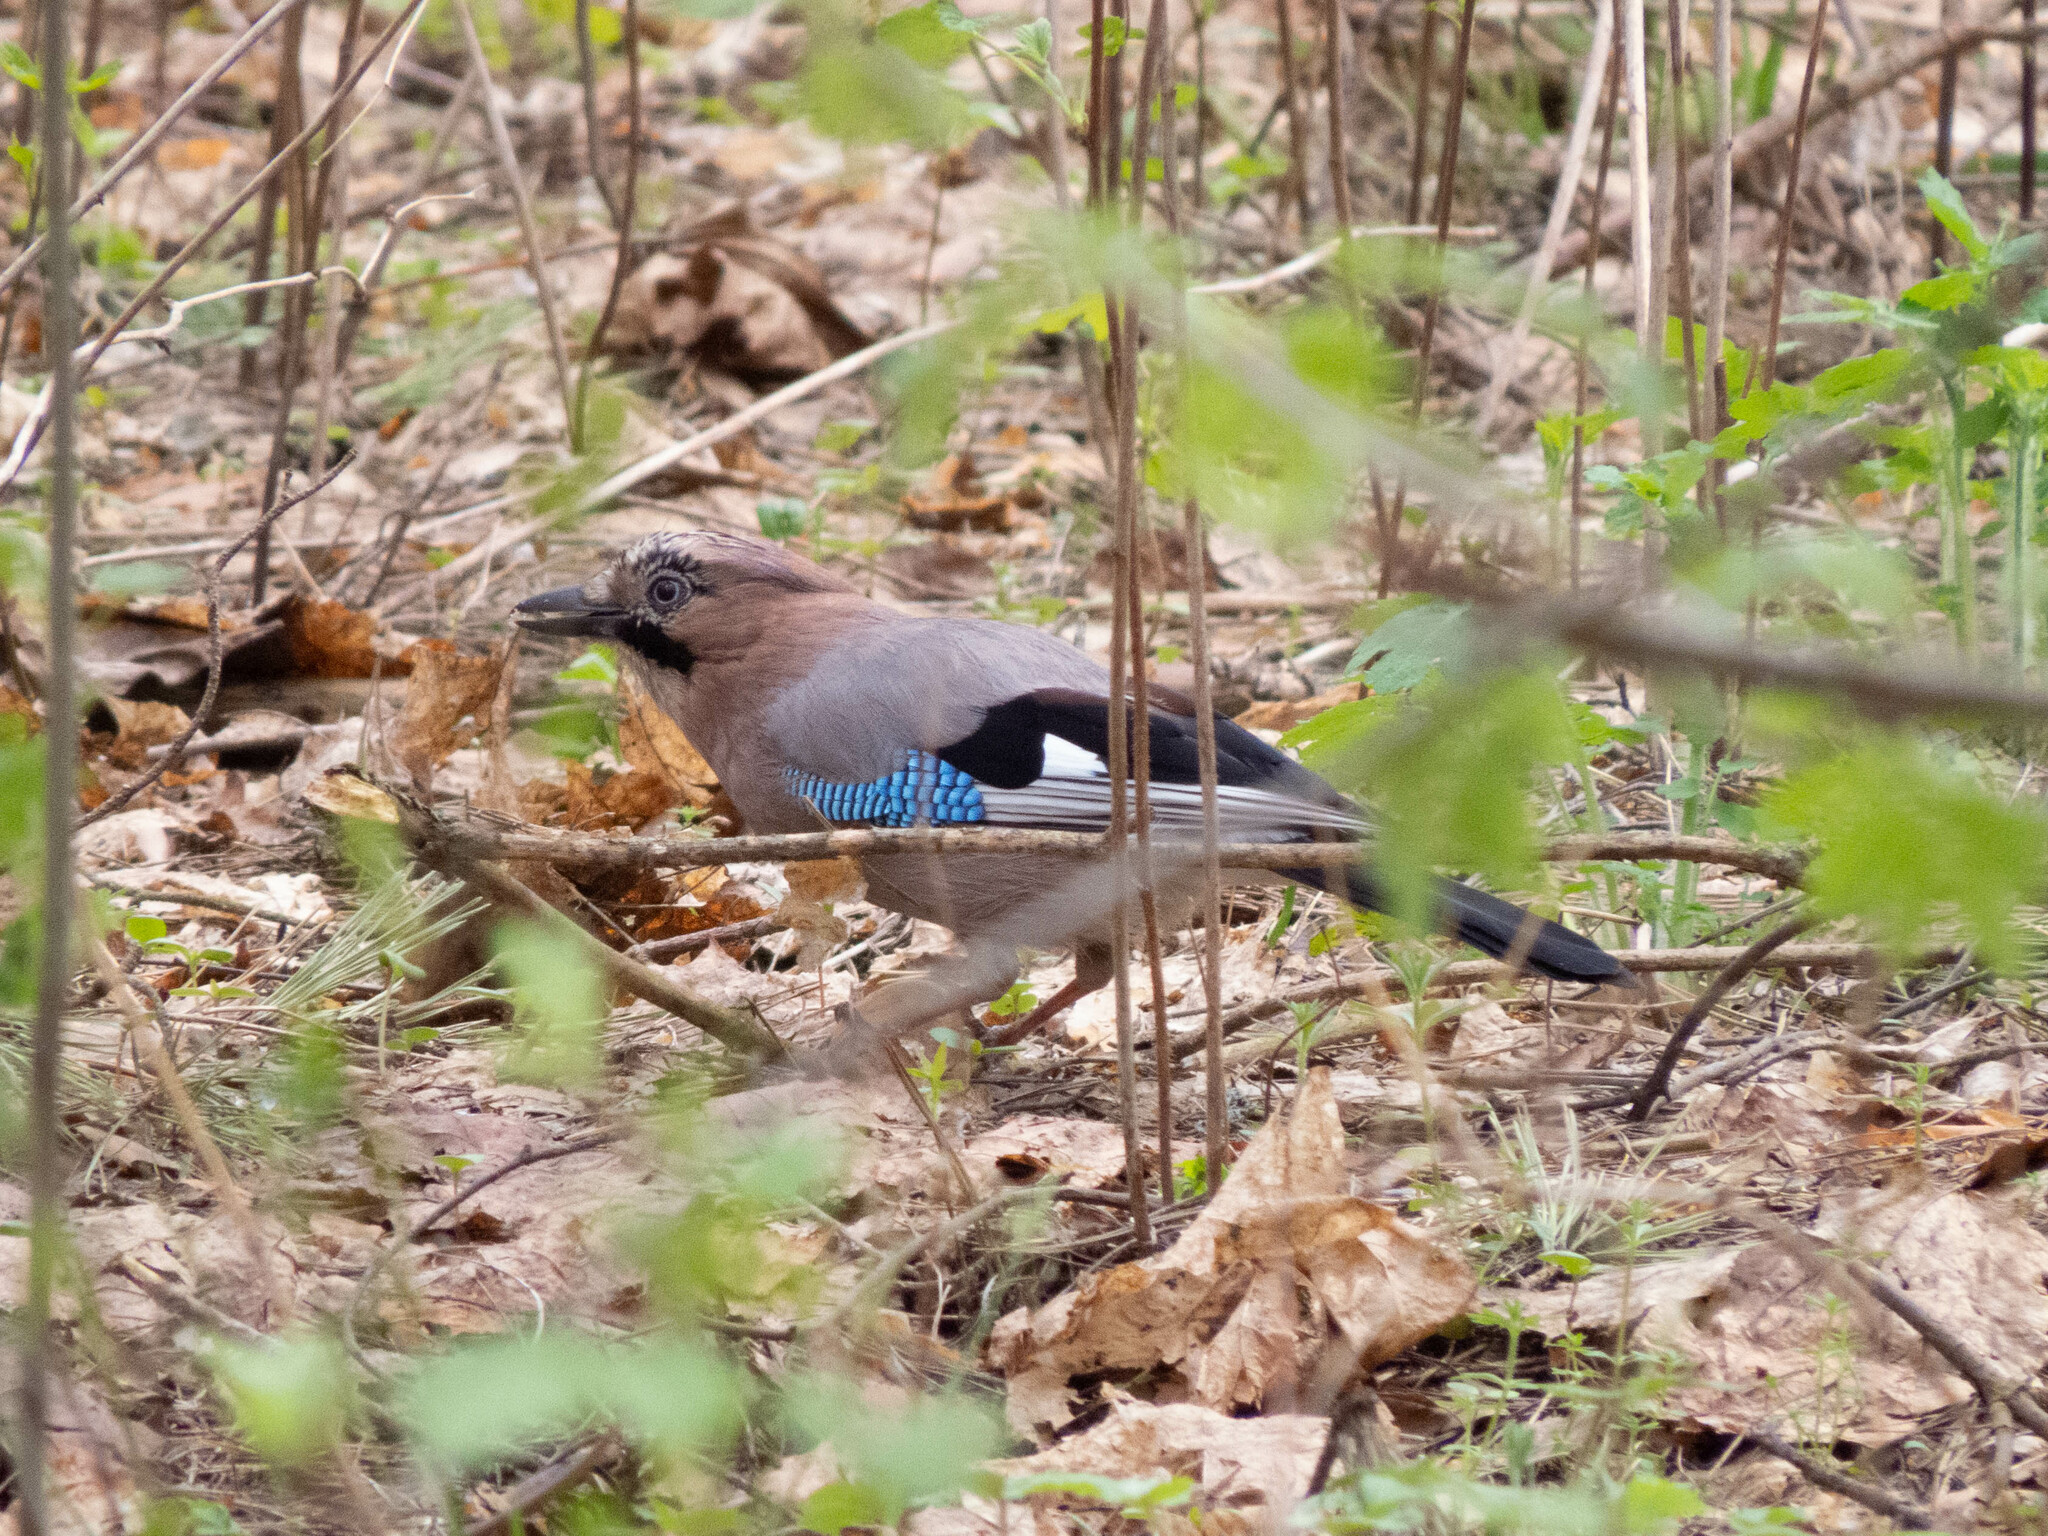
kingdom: Animalia
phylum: Chordata
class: Aves
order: Passeriformes
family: Corvidae
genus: Garrulus
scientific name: Garrulus glandarius
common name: Eurasian jay
